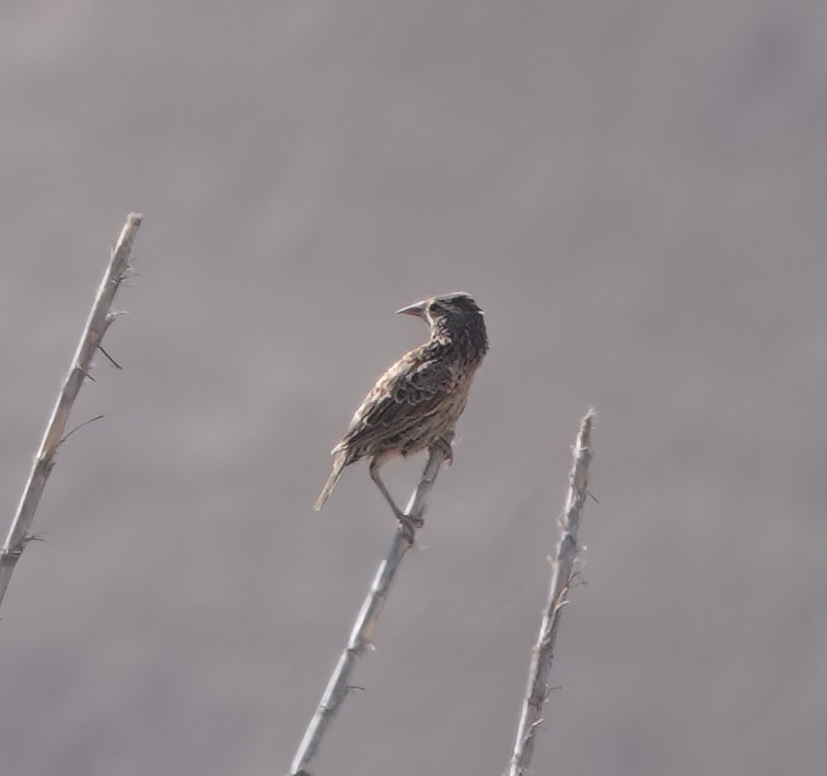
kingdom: Animalia
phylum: Chordata
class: Aves
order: Passeriformes
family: Icteridae
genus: Sturnella
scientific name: Sturnella bellicosa
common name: Peruvian meadowlark
